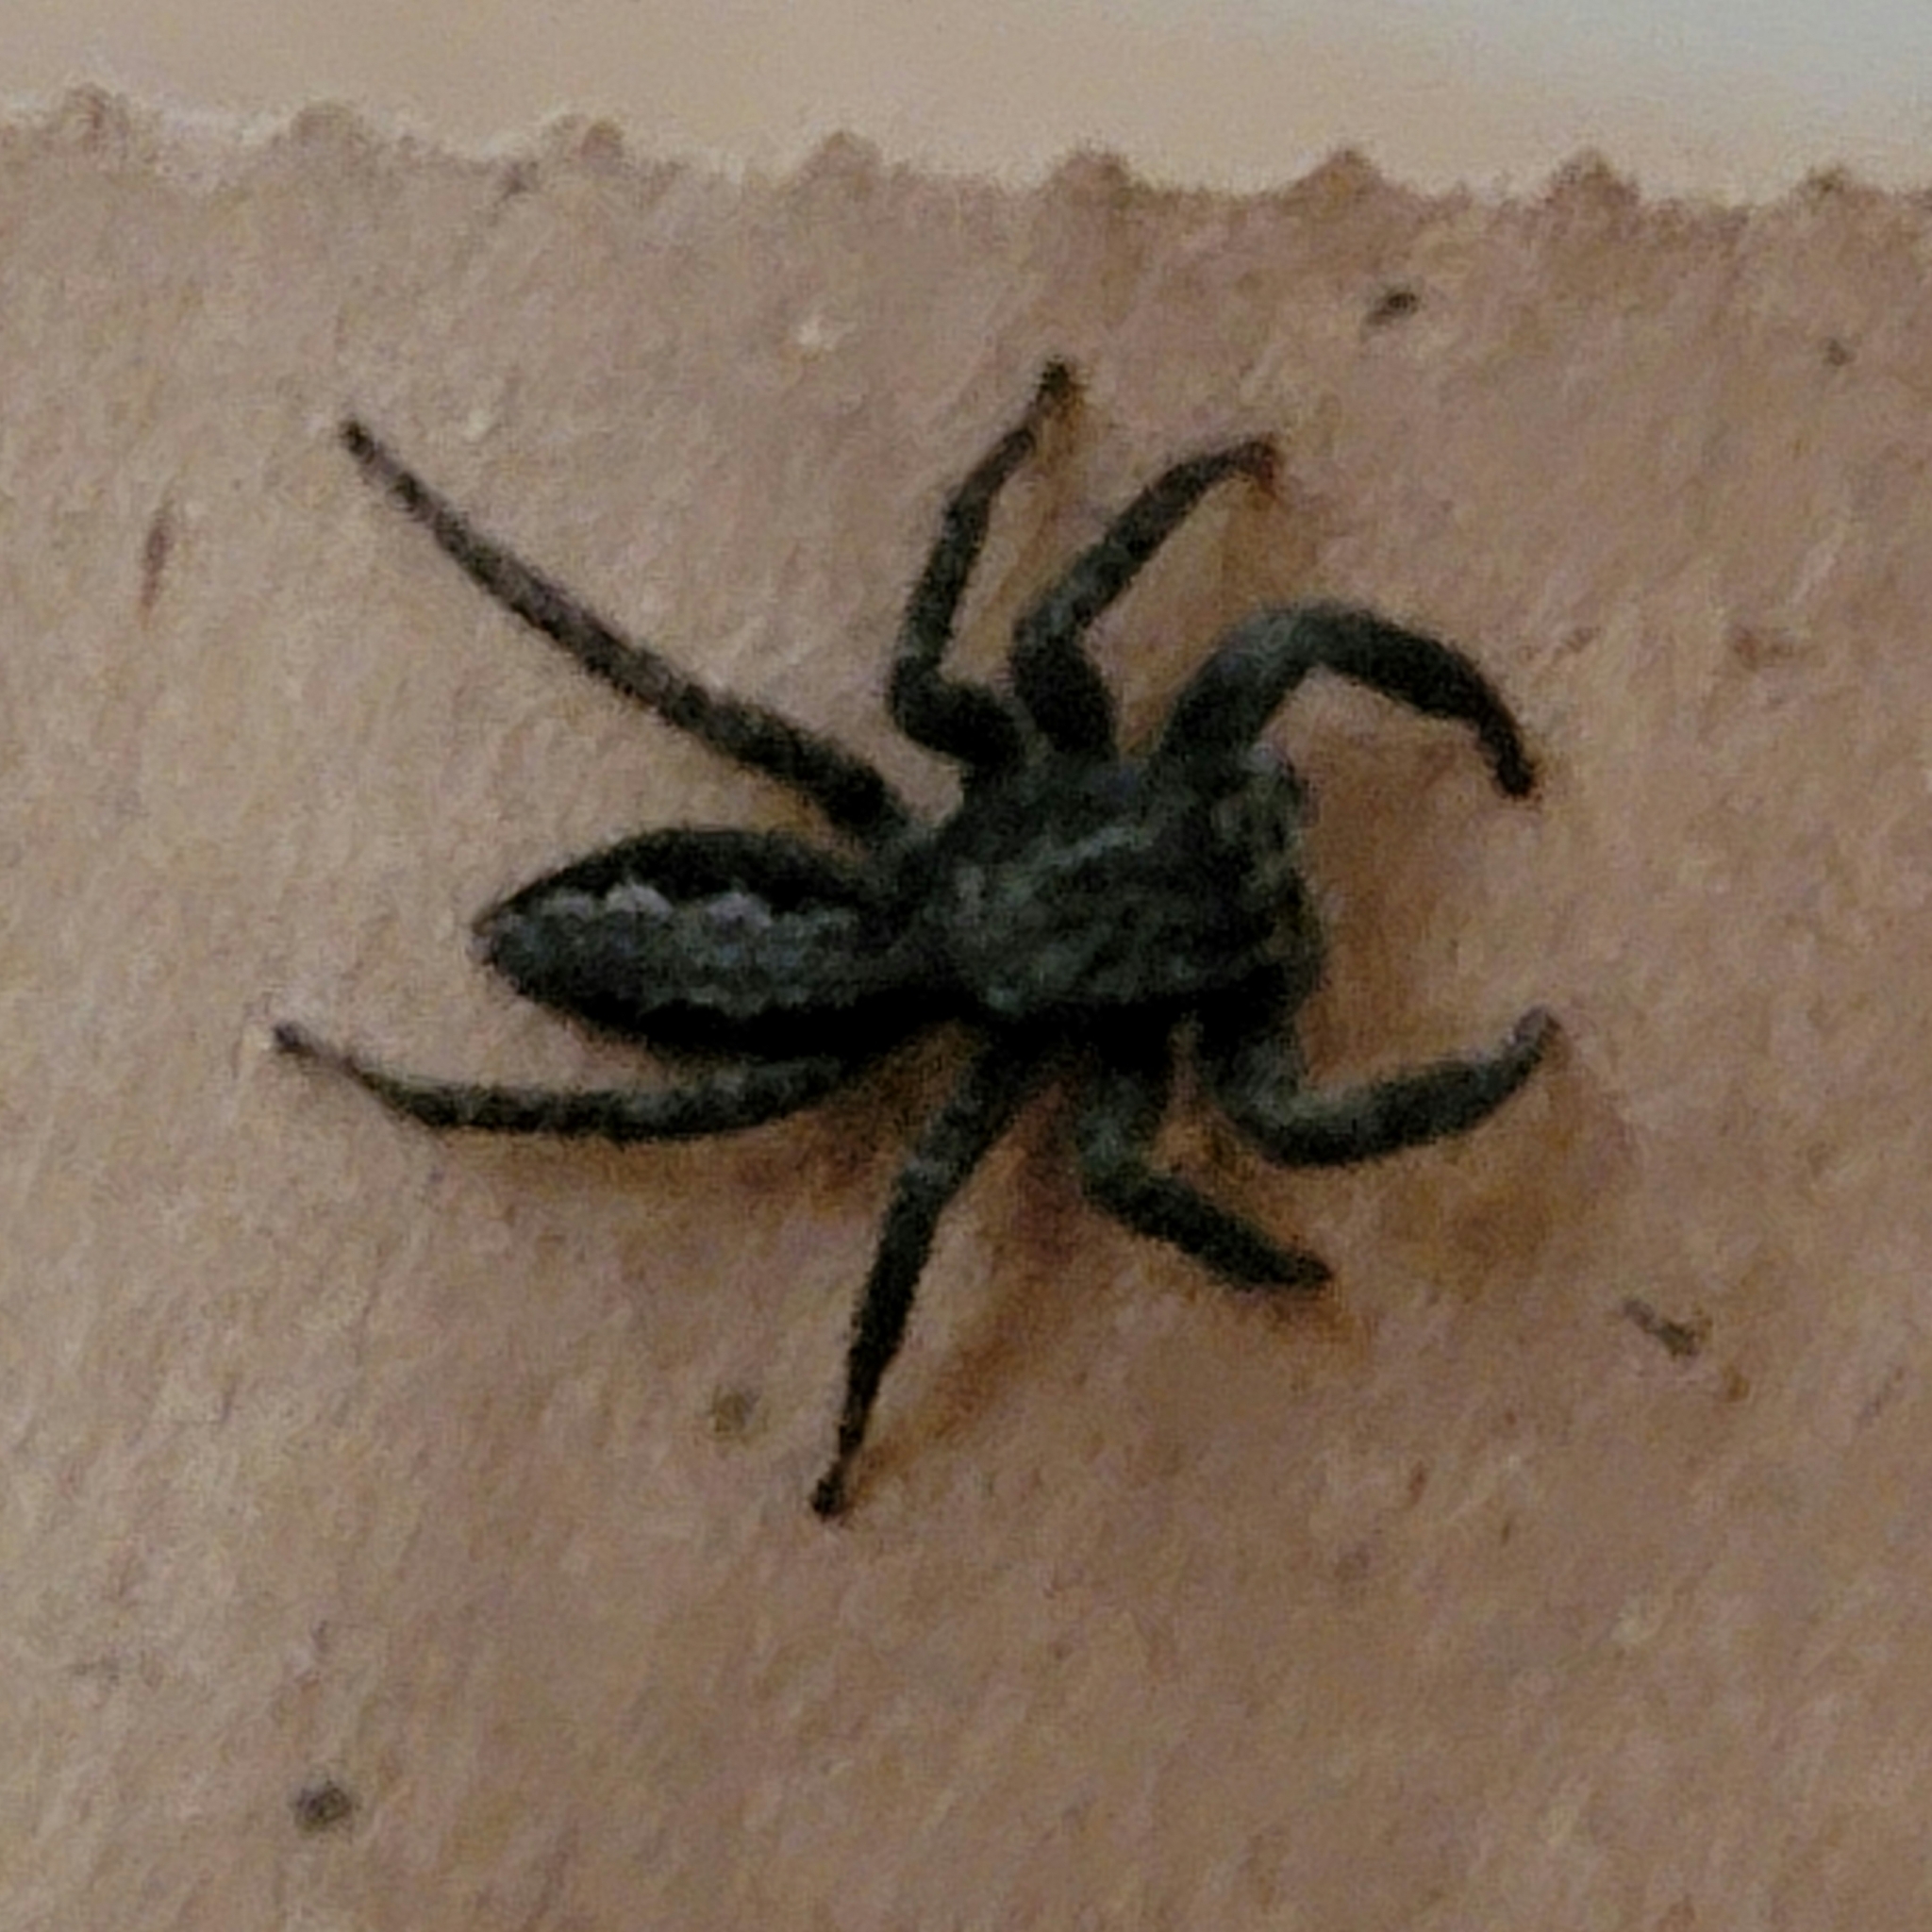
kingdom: Animalia
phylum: Arthropoda
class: Arachnida
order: Araneae
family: Salticidae
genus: Platycryptus
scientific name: Platycryptus californicus
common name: Jumping spiders
